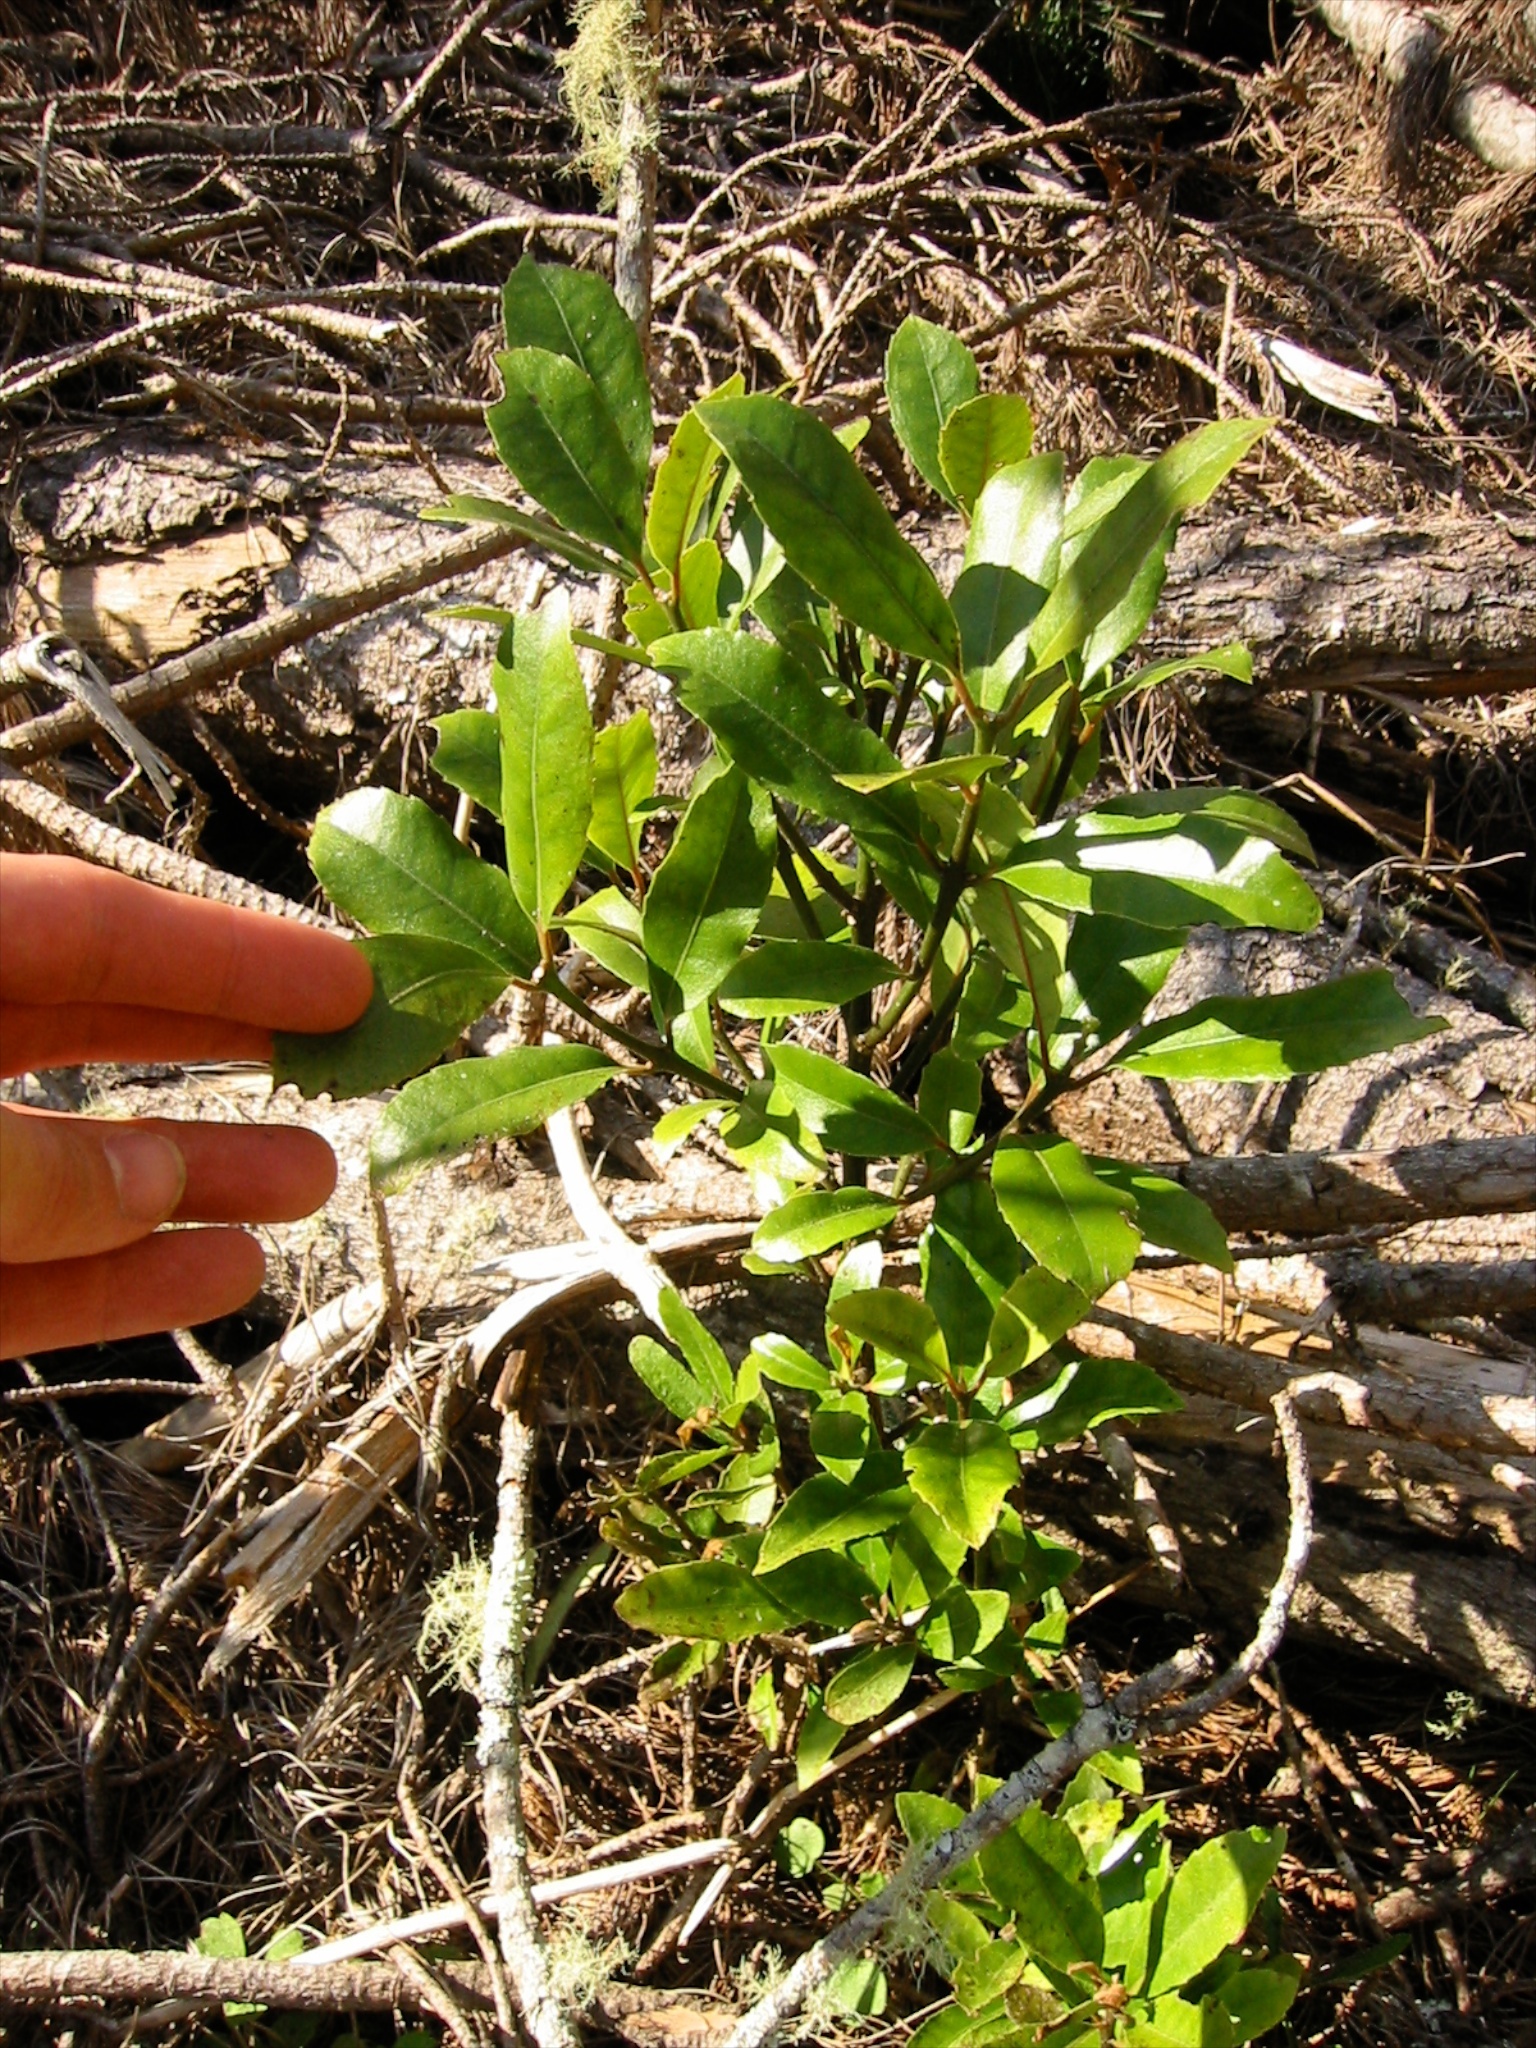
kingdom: Plantae
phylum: Tracheophyta
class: Magnoliopsida
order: Laurales
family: Monimiaceae
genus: Hedycarya
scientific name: Hedycarya arborea
